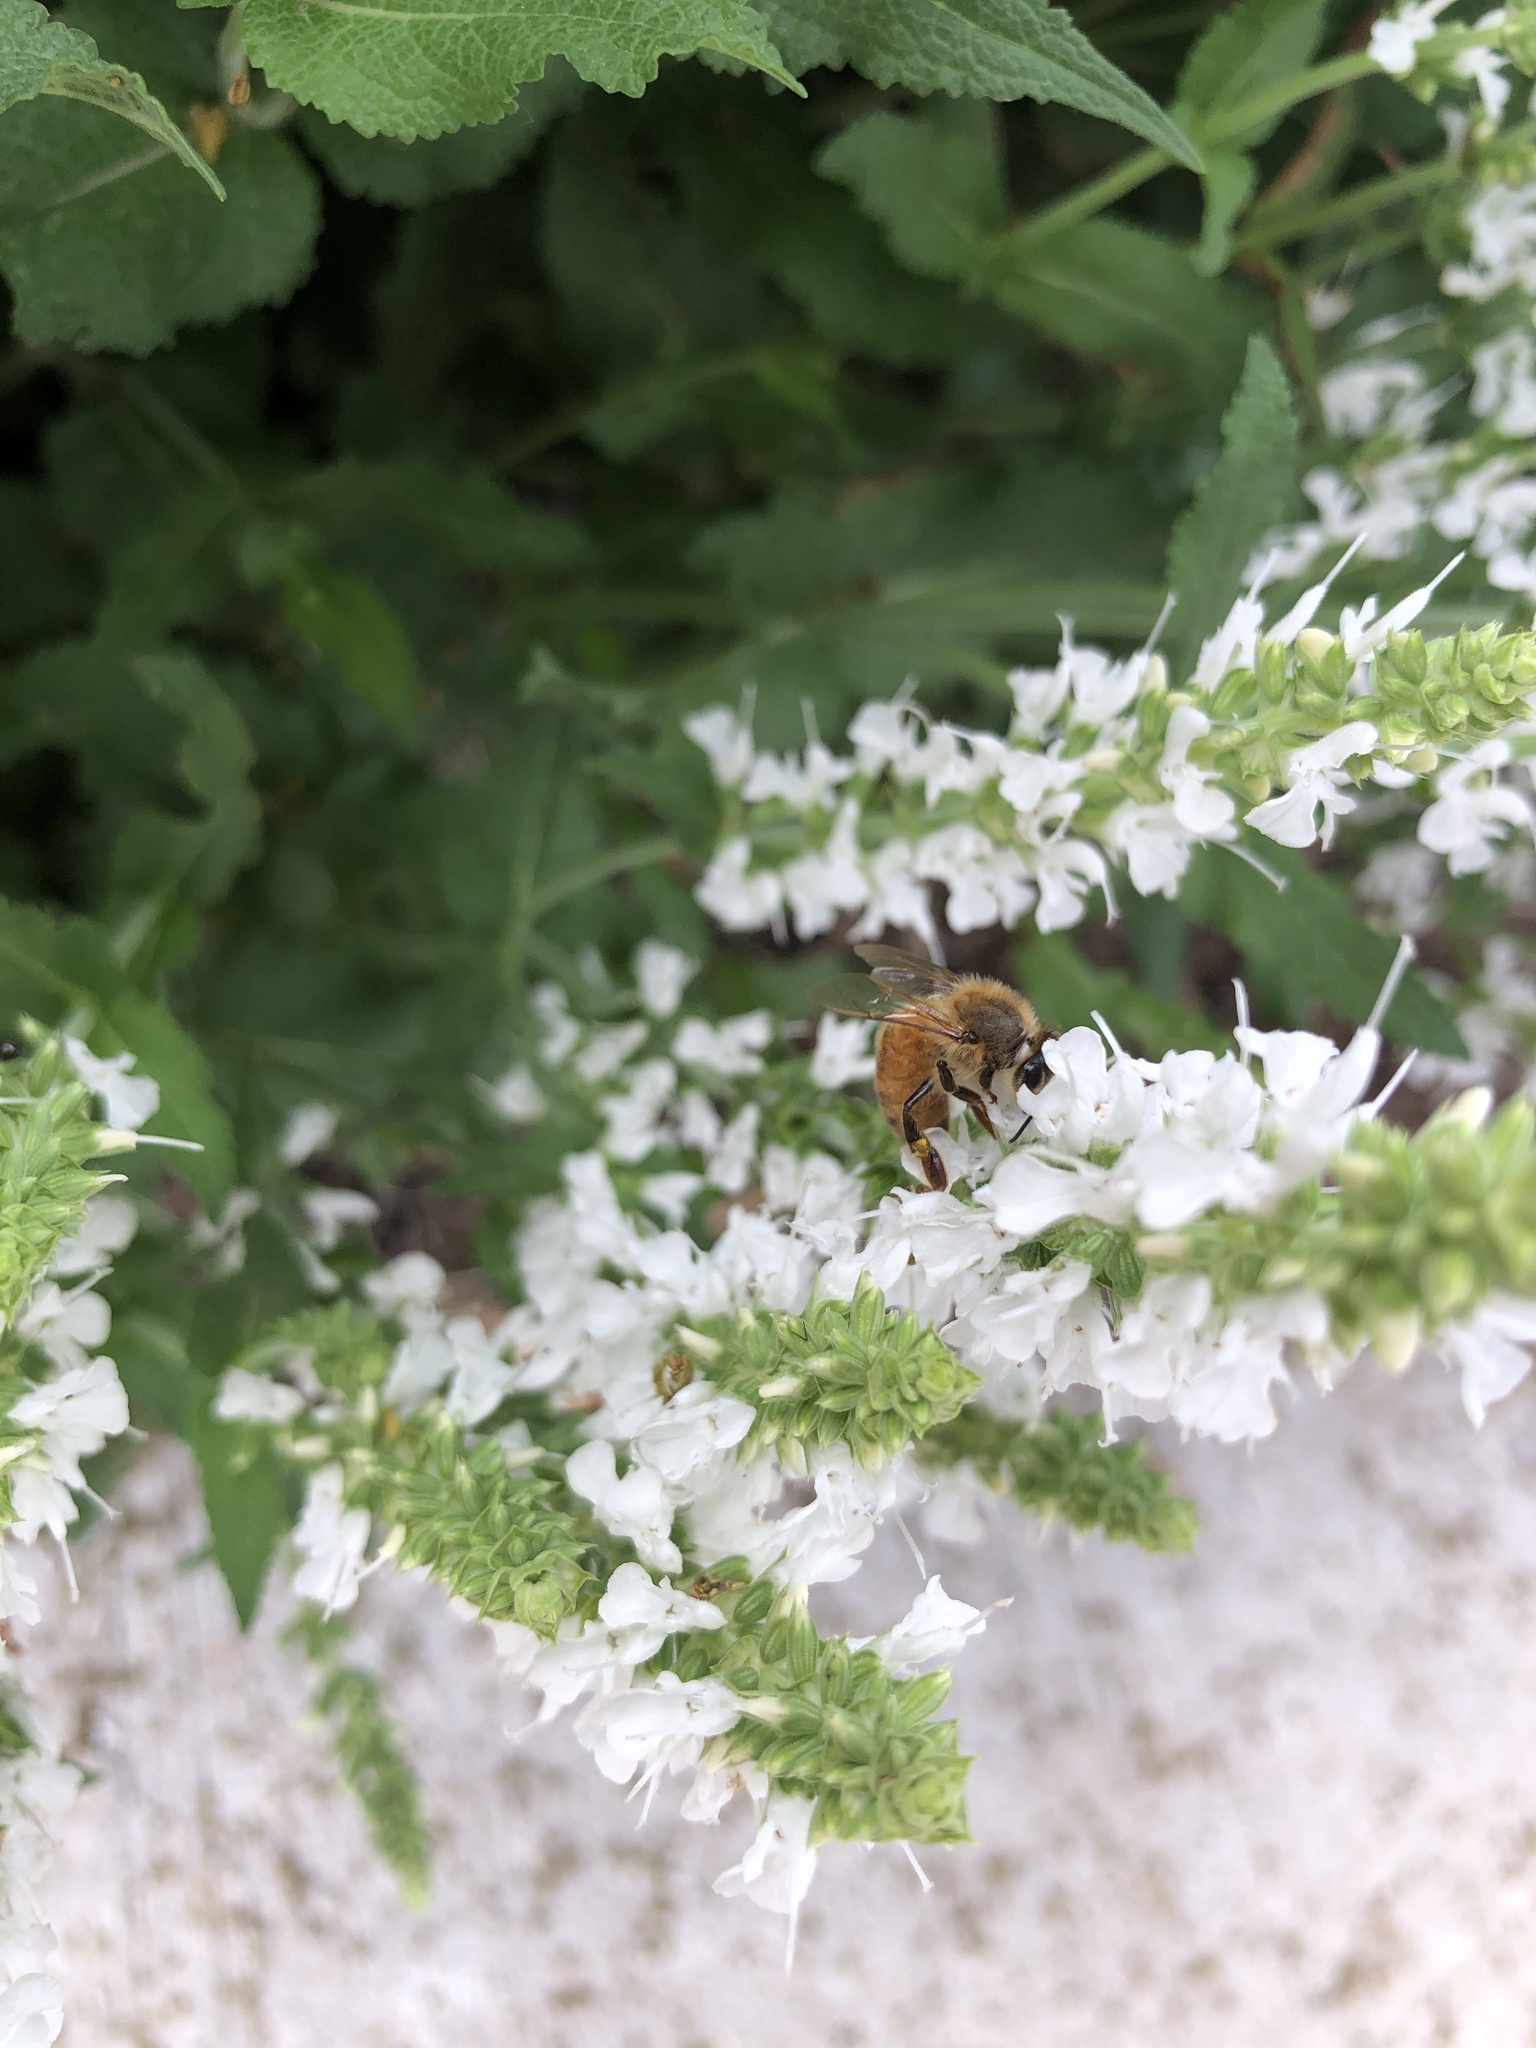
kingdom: Animalia
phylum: Arthropoda
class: Insecta
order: Hymenoptera
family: Apidae
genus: Apis
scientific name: Apis mellifera
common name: Honey bee
